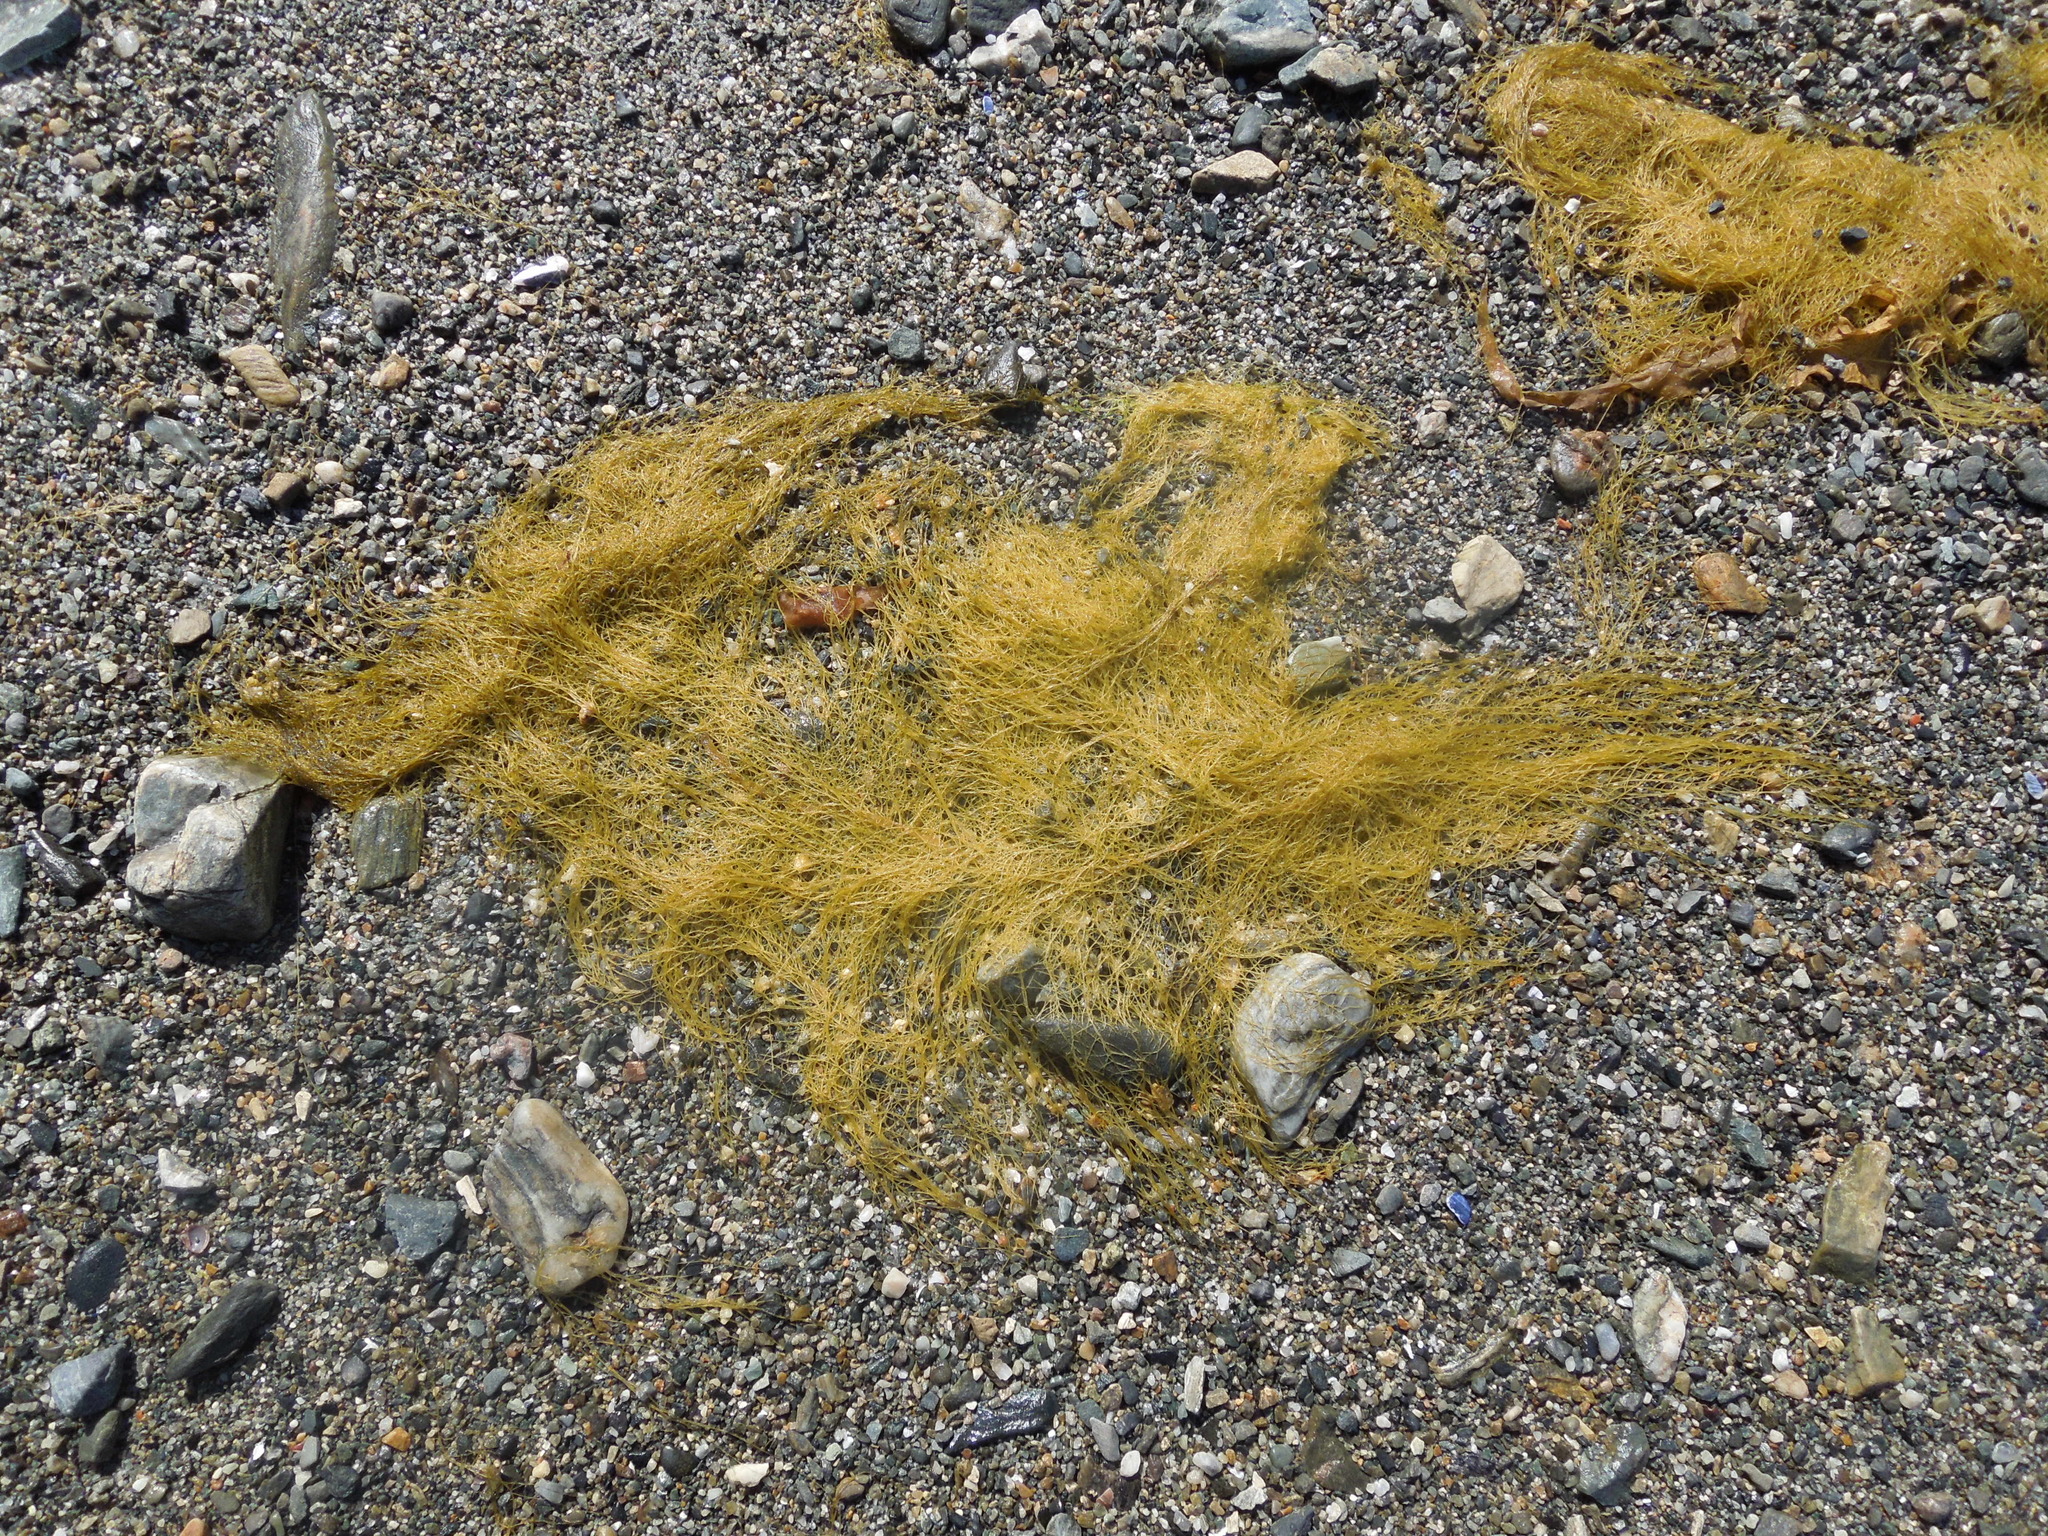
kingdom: Chromista
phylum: Ochrophyta
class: Phaeophyceae
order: Desmarestiales
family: Desmarestiaceae
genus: Desmarestia
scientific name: Desmarestia
